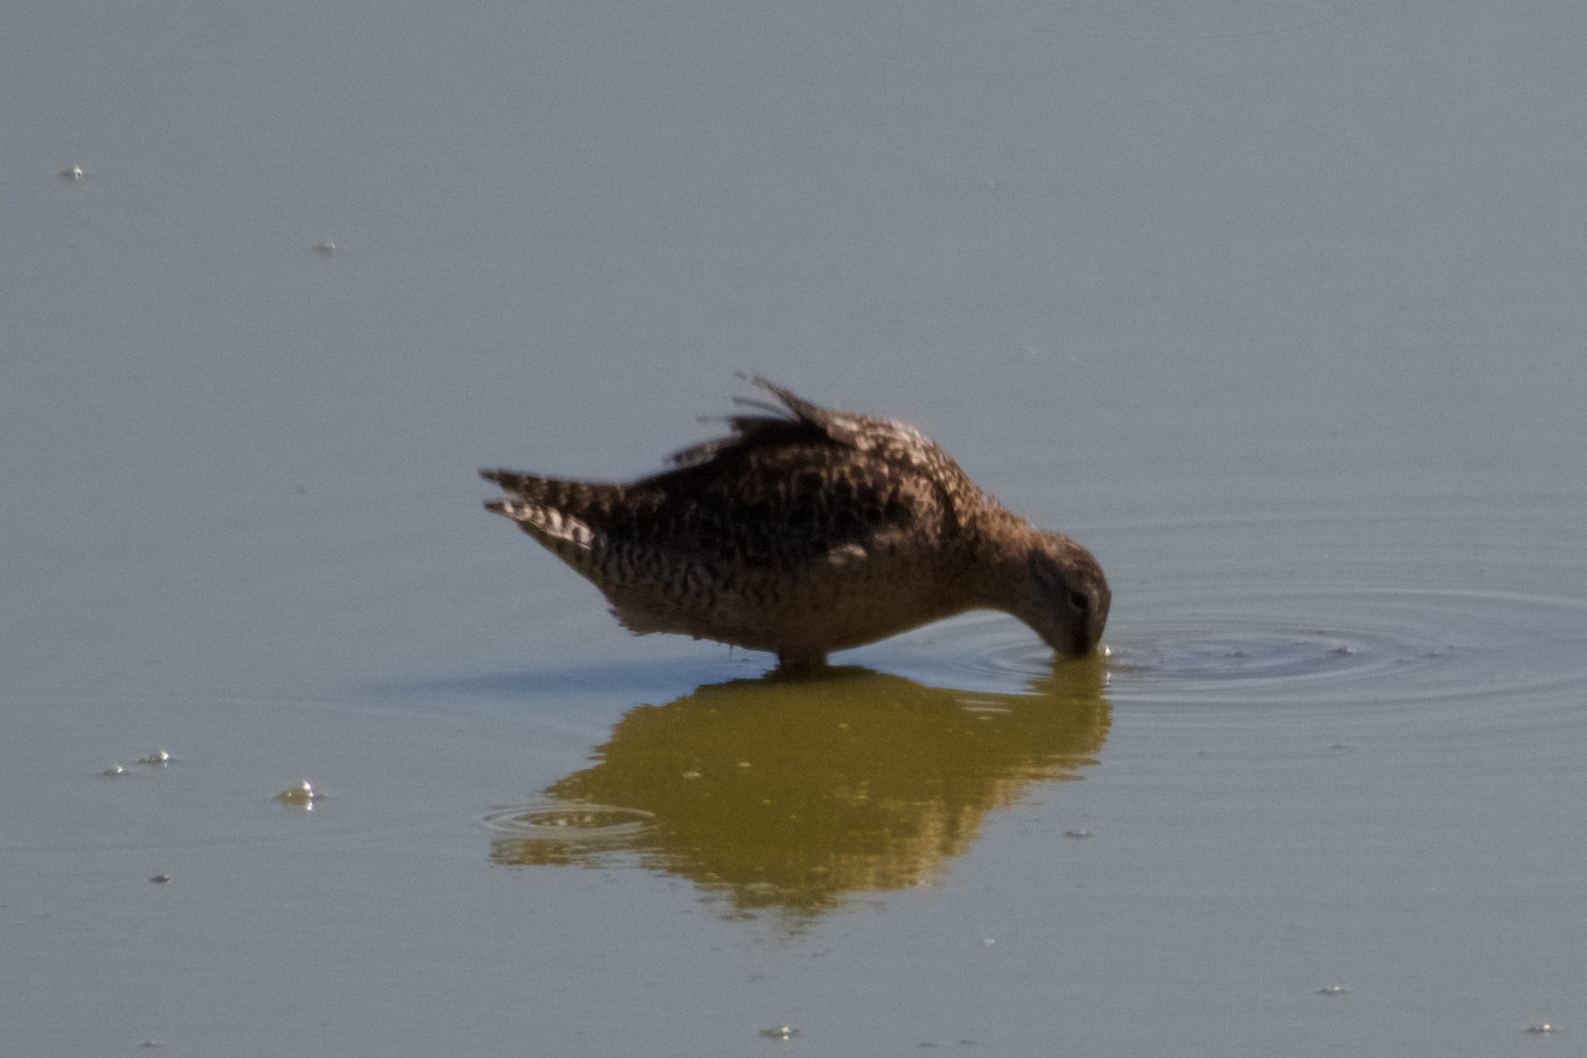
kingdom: Animalia
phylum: Chordata
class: Aves
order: Charadriiformes
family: Scolopacidae
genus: Limnodromus
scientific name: Limnodromus scolopaceus
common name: Long-billed dowitcher
